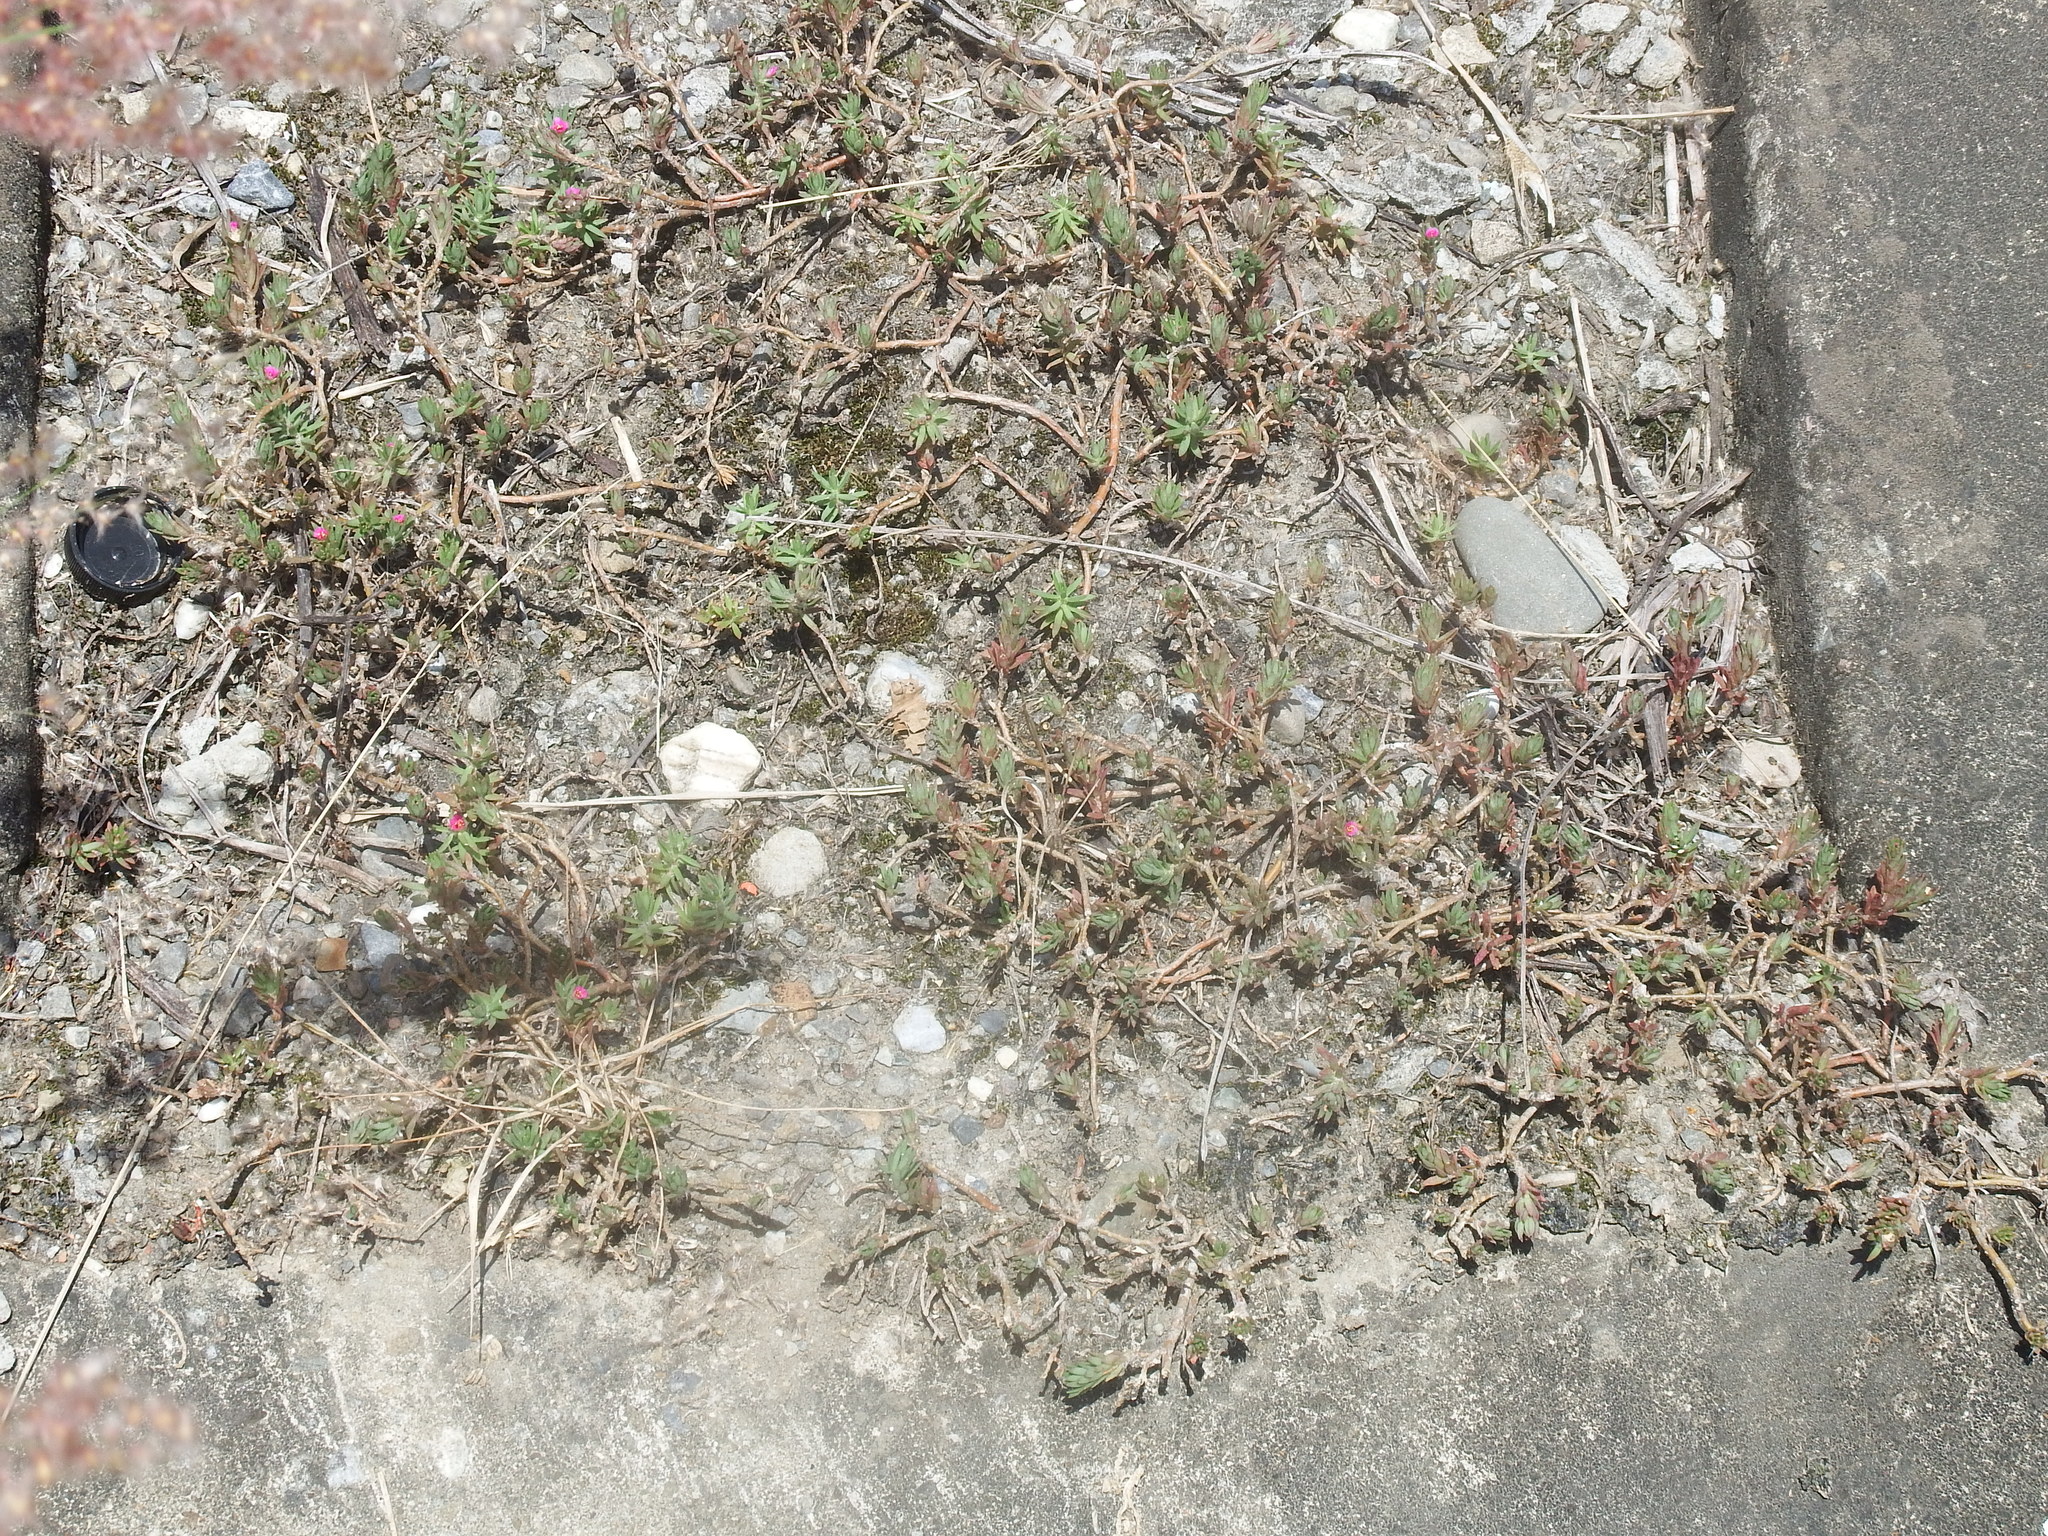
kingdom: Plantae
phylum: Tracheophyta
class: Magnoliopsida
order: Caryophyllales
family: Portulacaceae
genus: Portulaca
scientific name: Portulaca pilosa
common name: Kiss me quick
